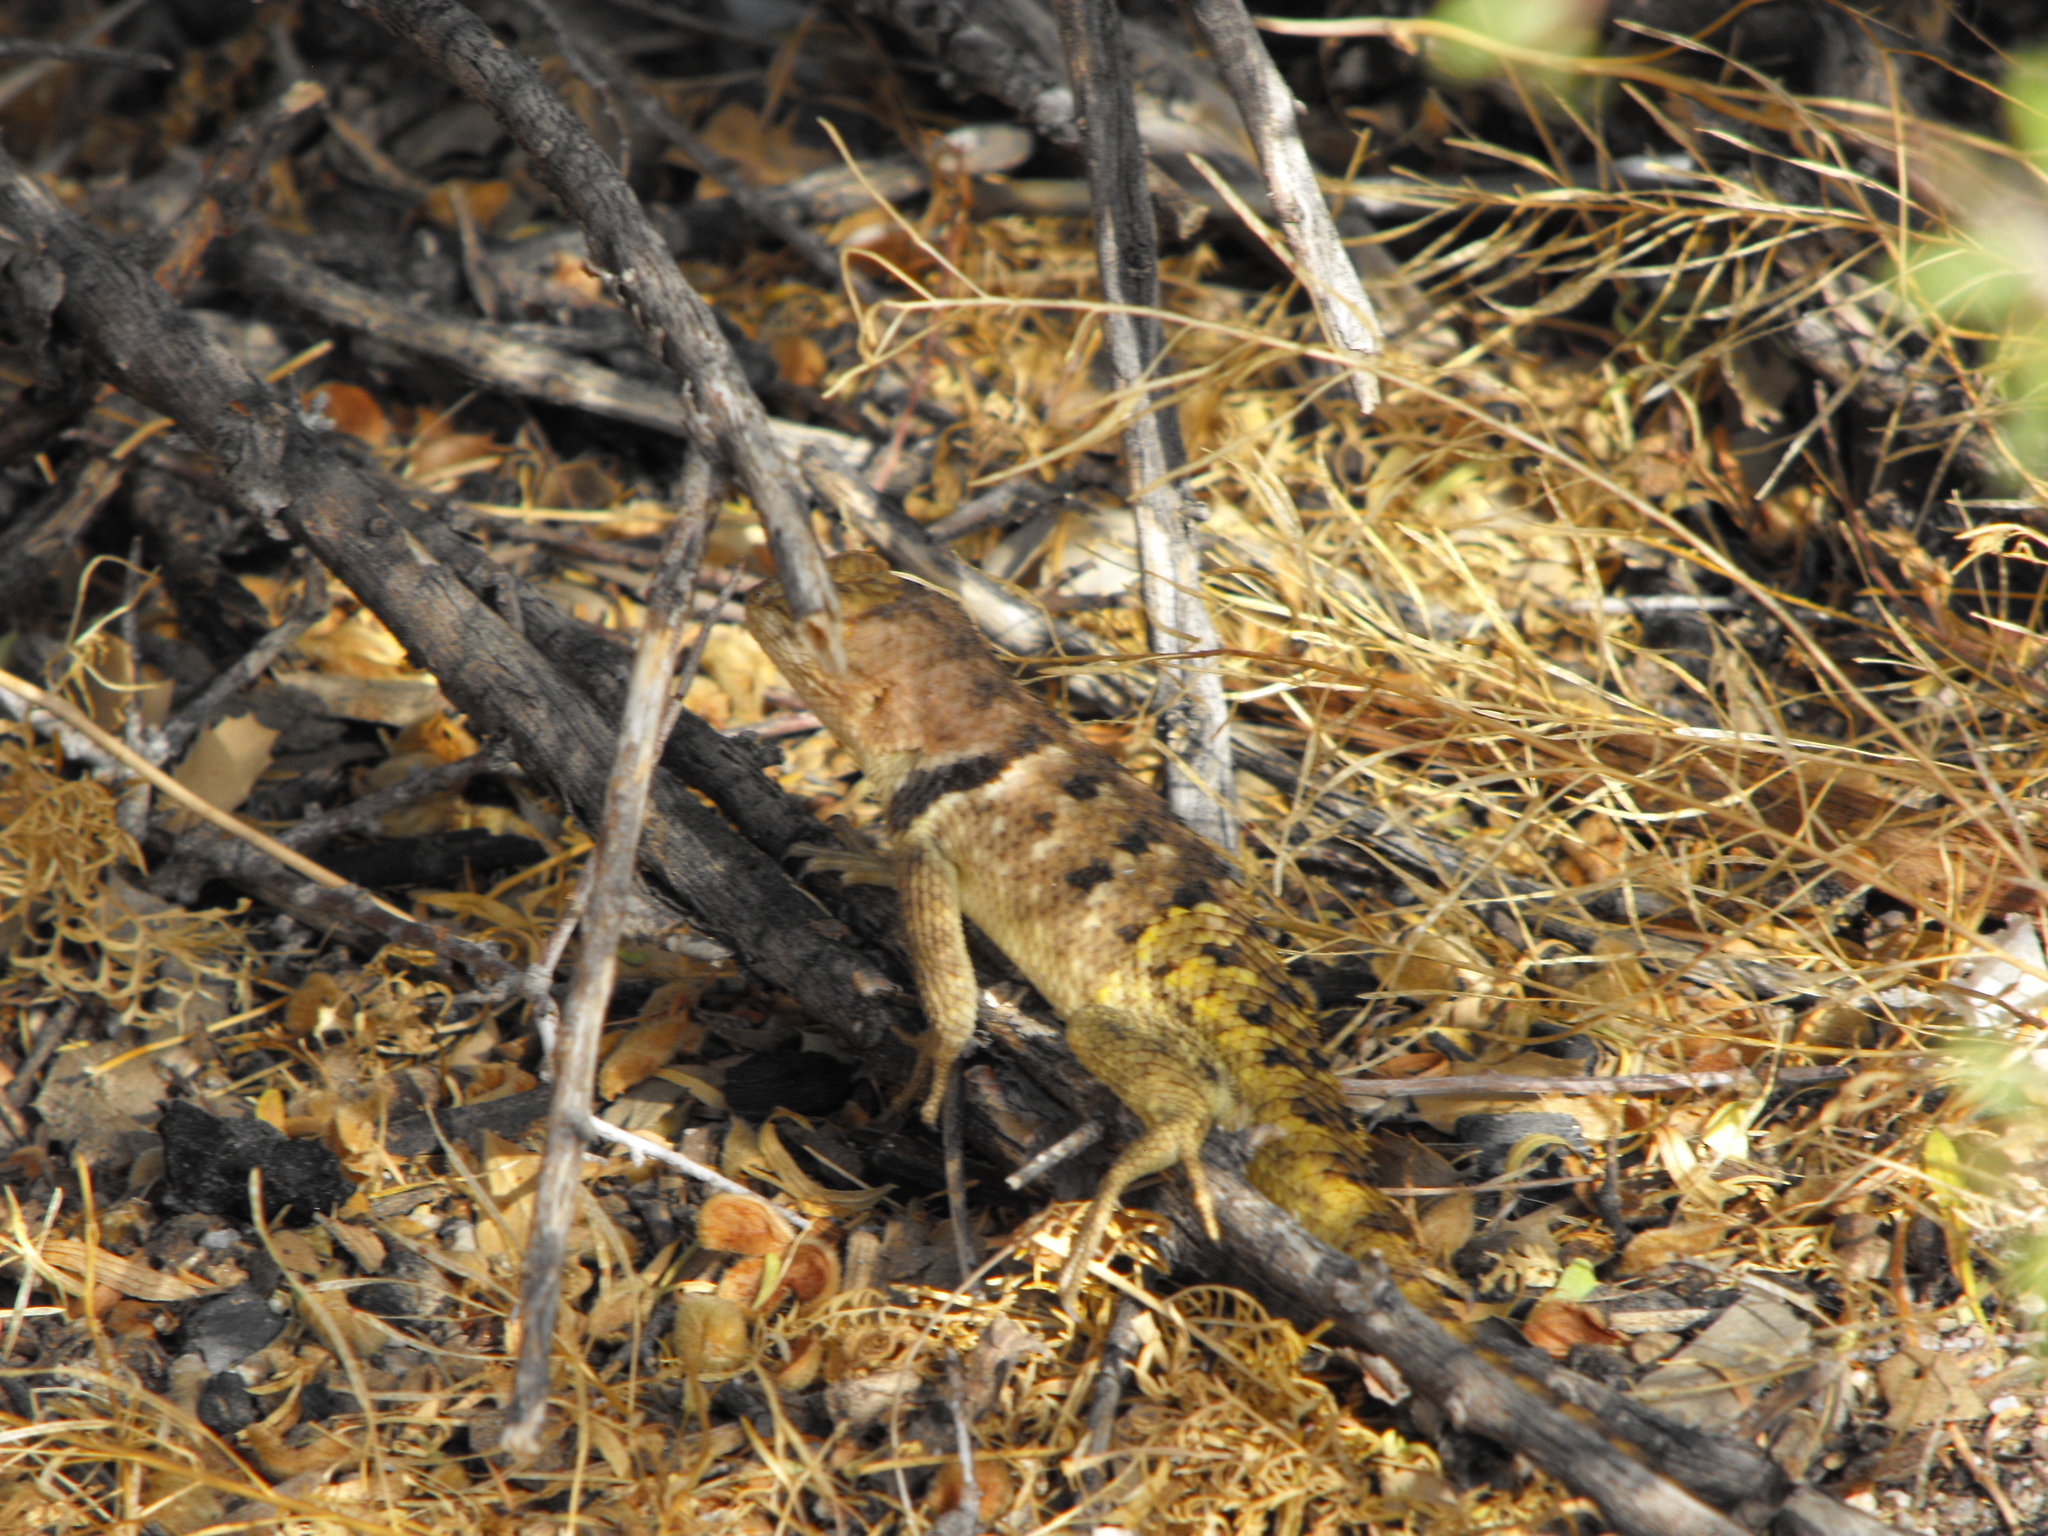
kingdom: Animalia
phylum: Chordata
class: Squamata
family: Phrynosomatidae
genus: Sceloporus
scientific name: Sceloporus uniformis
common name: Yellow-backed spiny lizard
